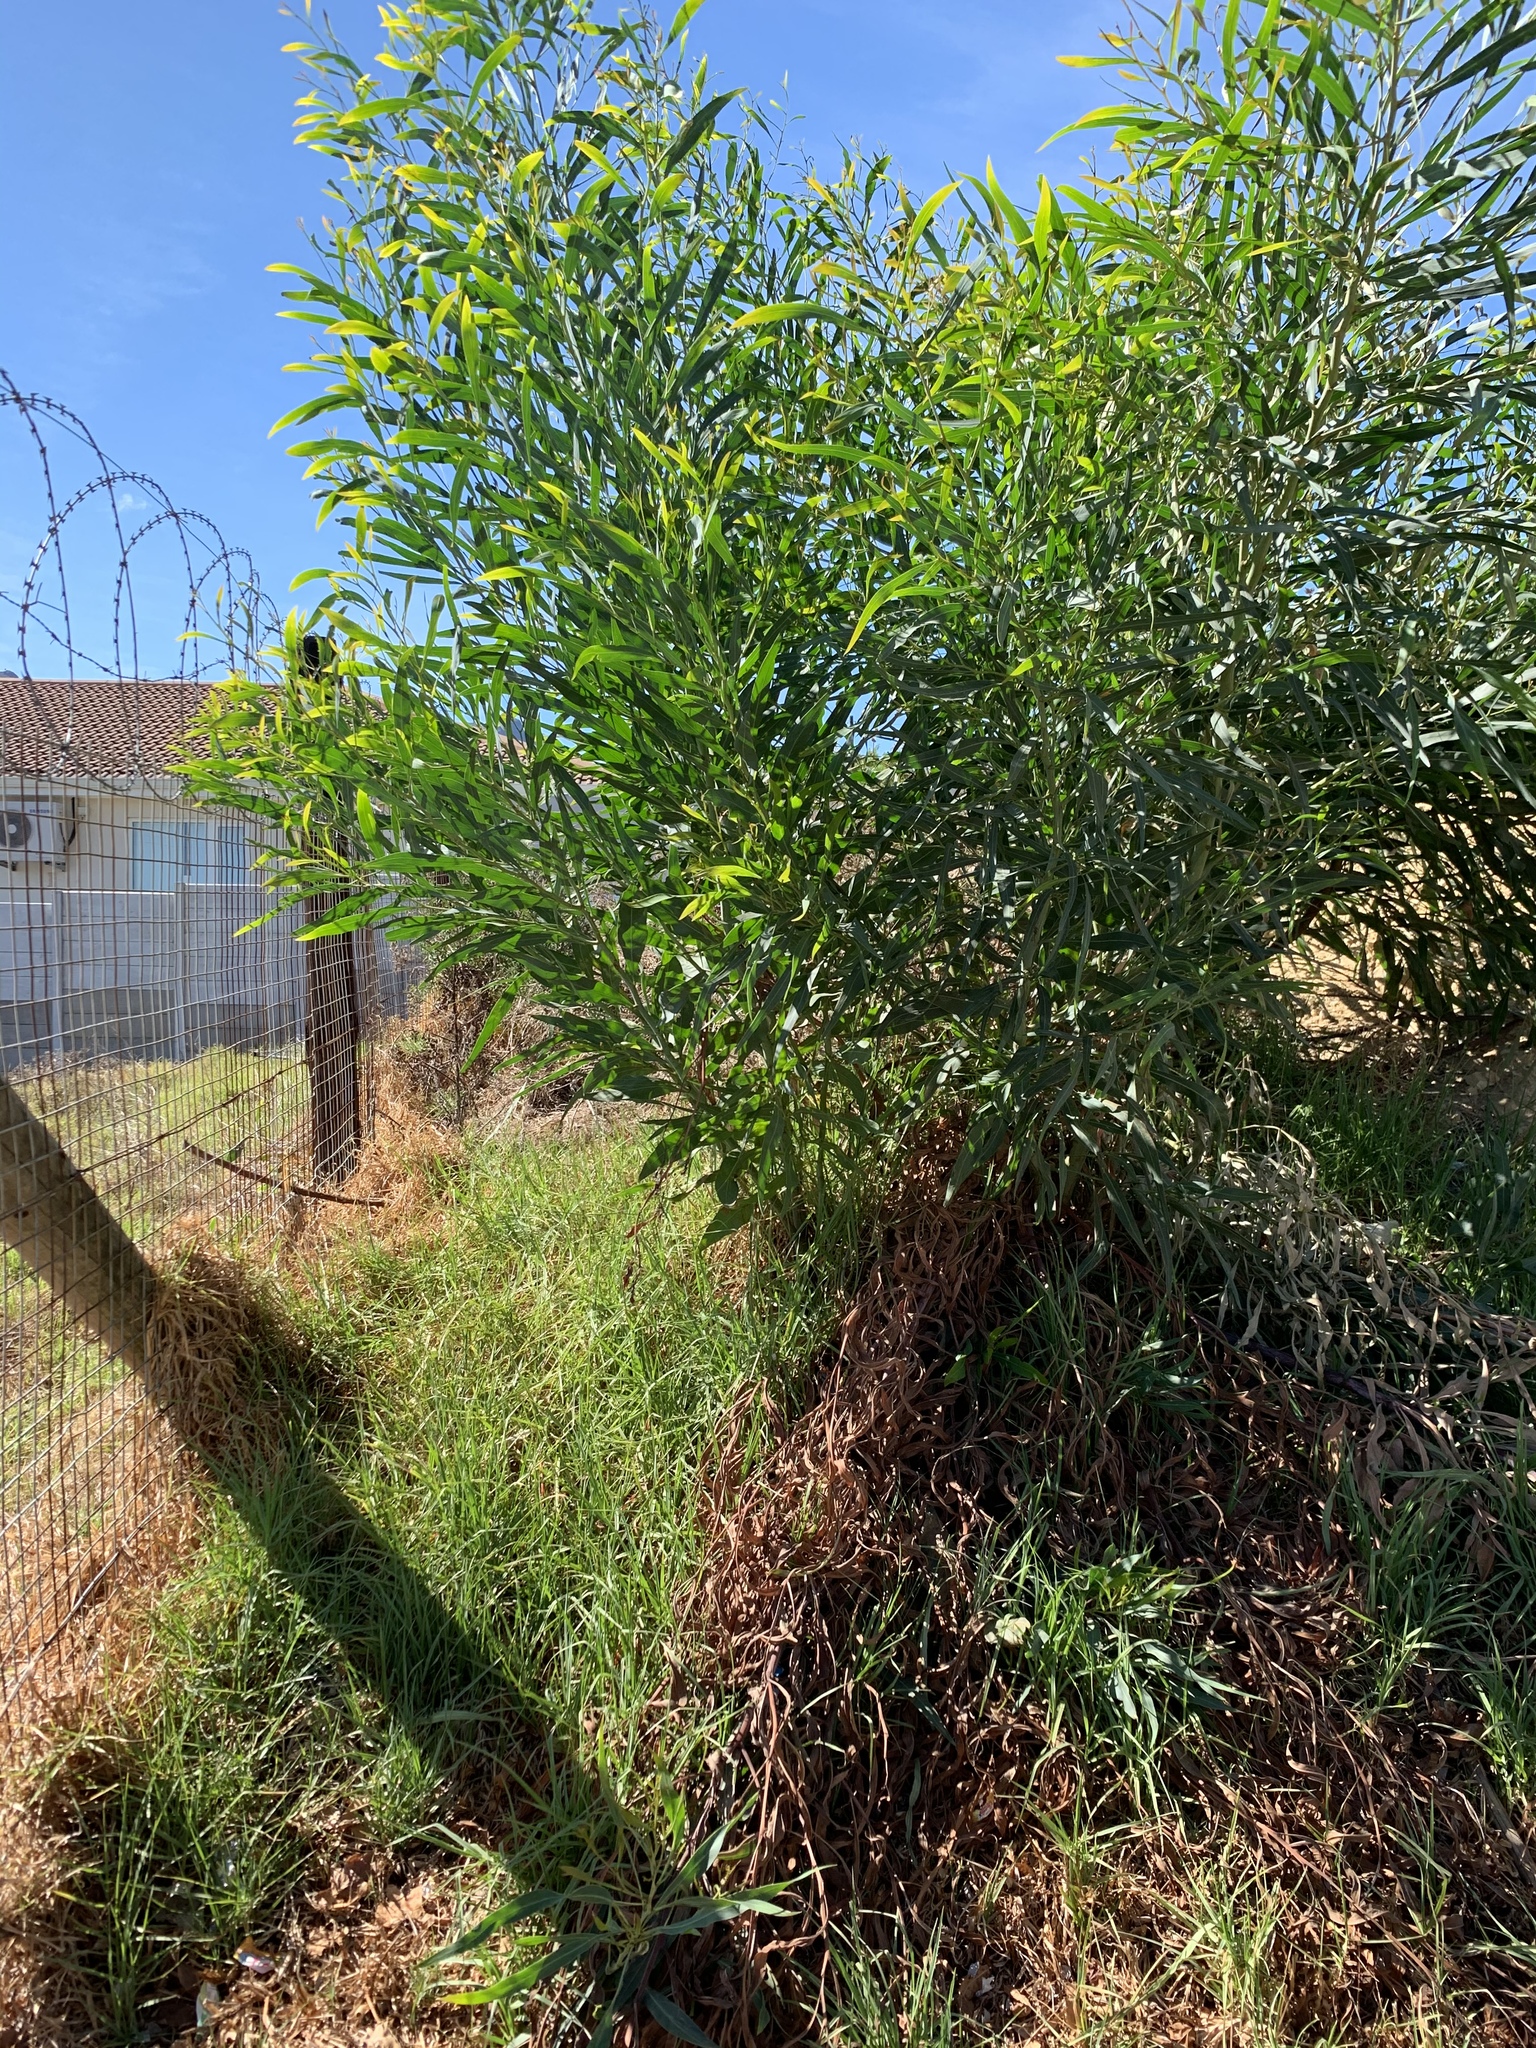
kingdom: Plantae
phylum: Tracheophyta
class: Magnoliopsida
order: Fabales
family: Fabaceae
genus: Acacia
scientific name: Acacia saligna
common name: Orange wattle
